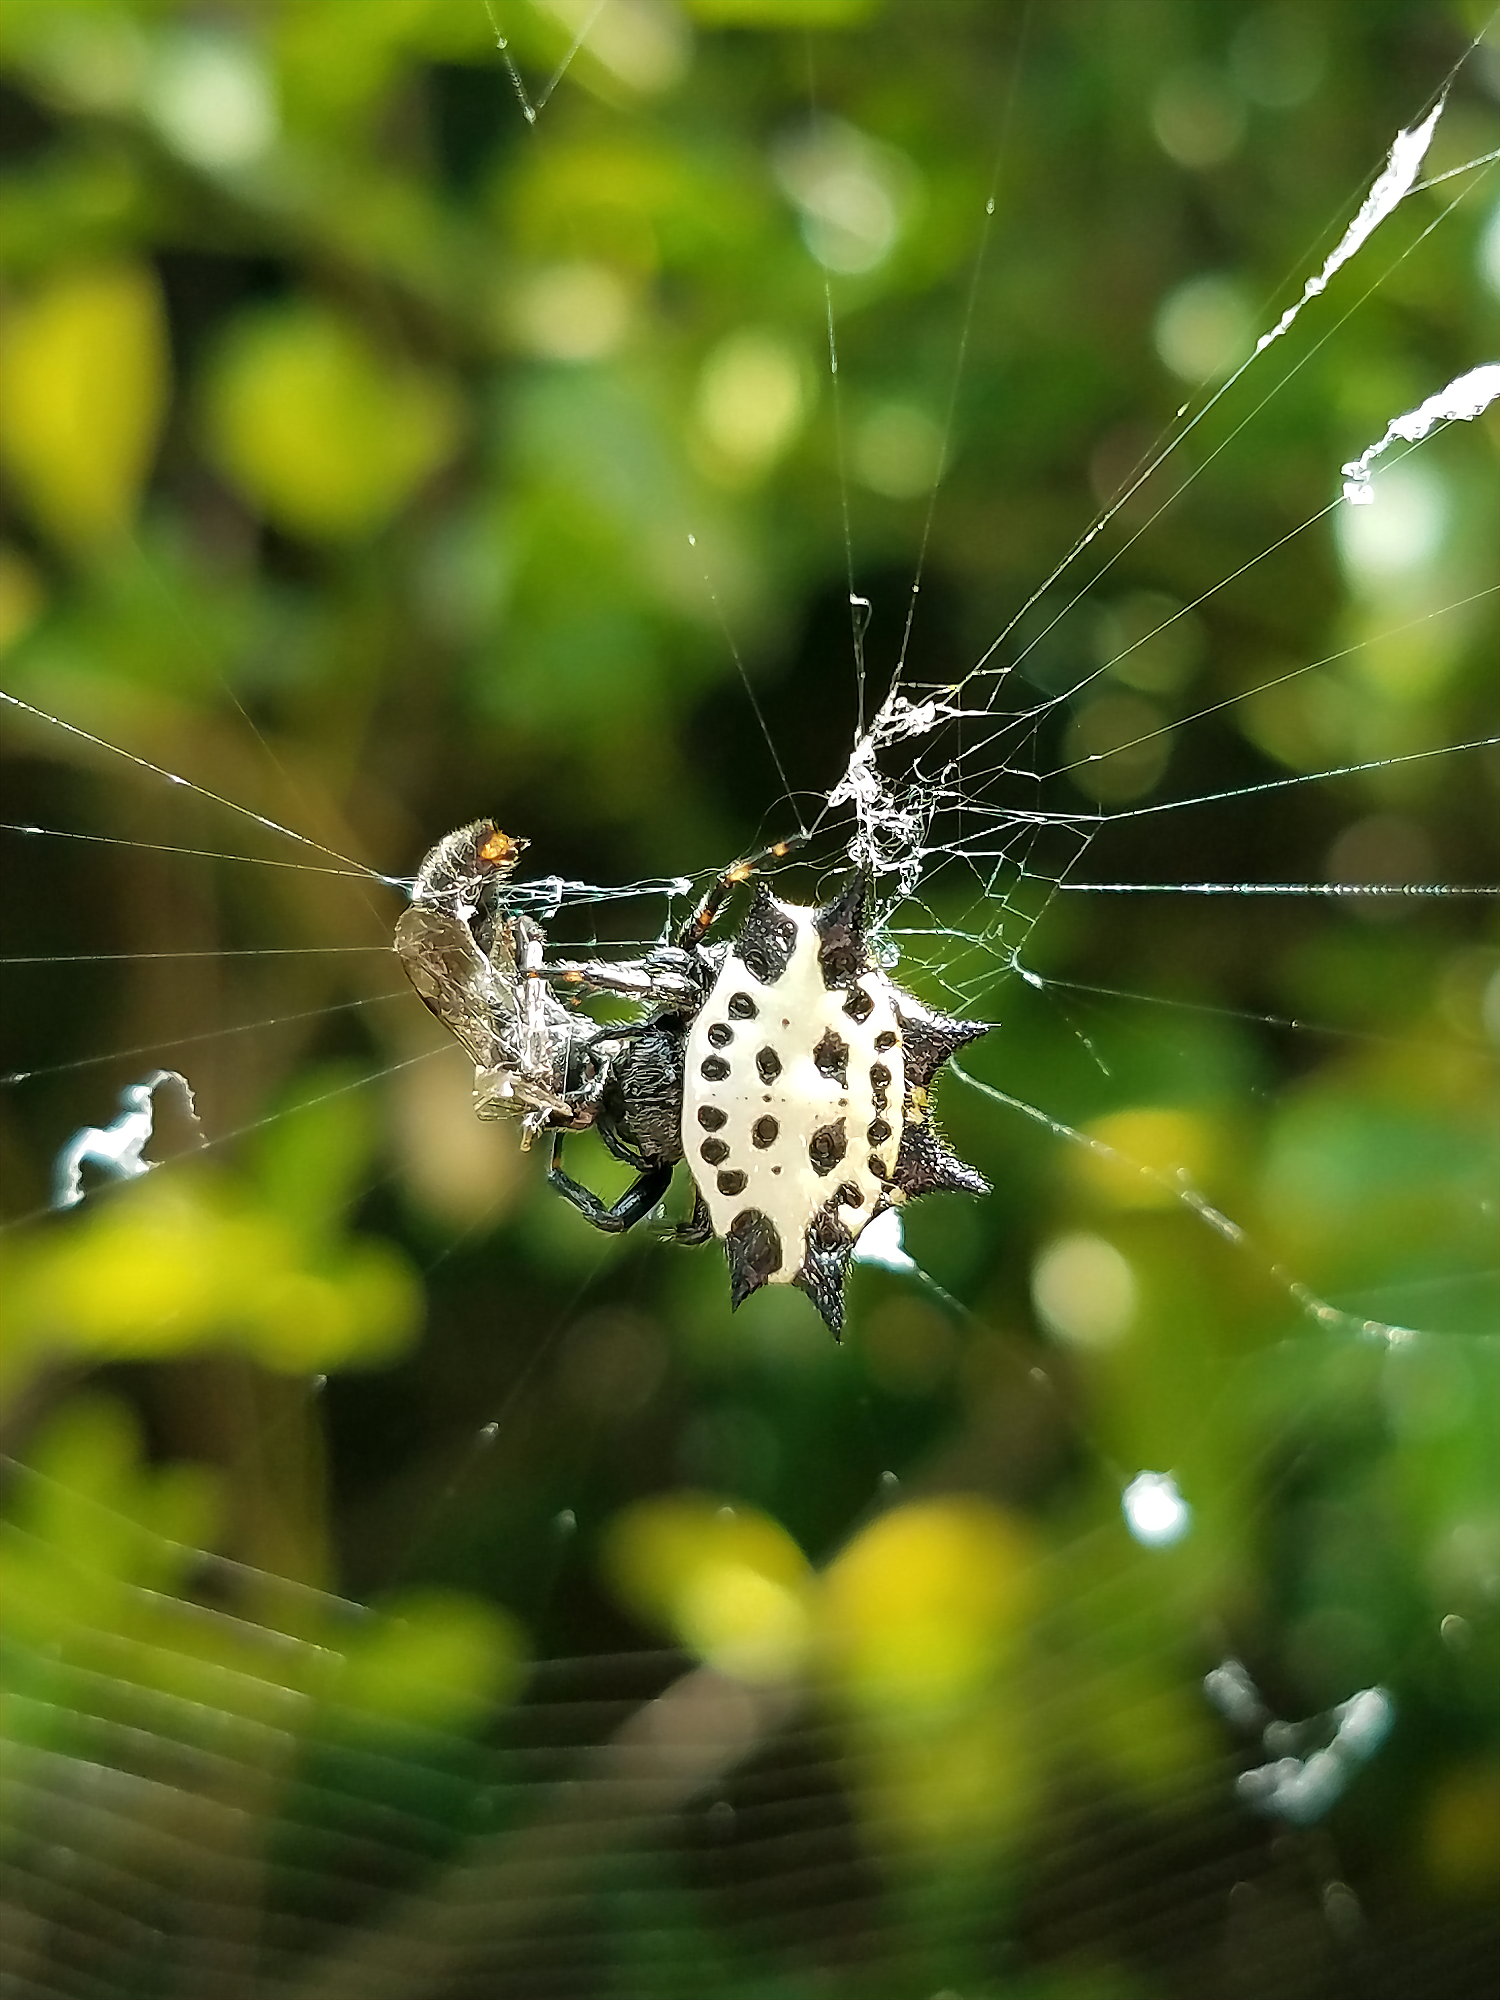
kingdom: Animalia
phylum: Arthropoda
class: Arachnida
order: Araneae
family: Araneidae
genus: Gasteracantha
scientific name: Gasteracantha cancriformis
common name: Orb weavers
